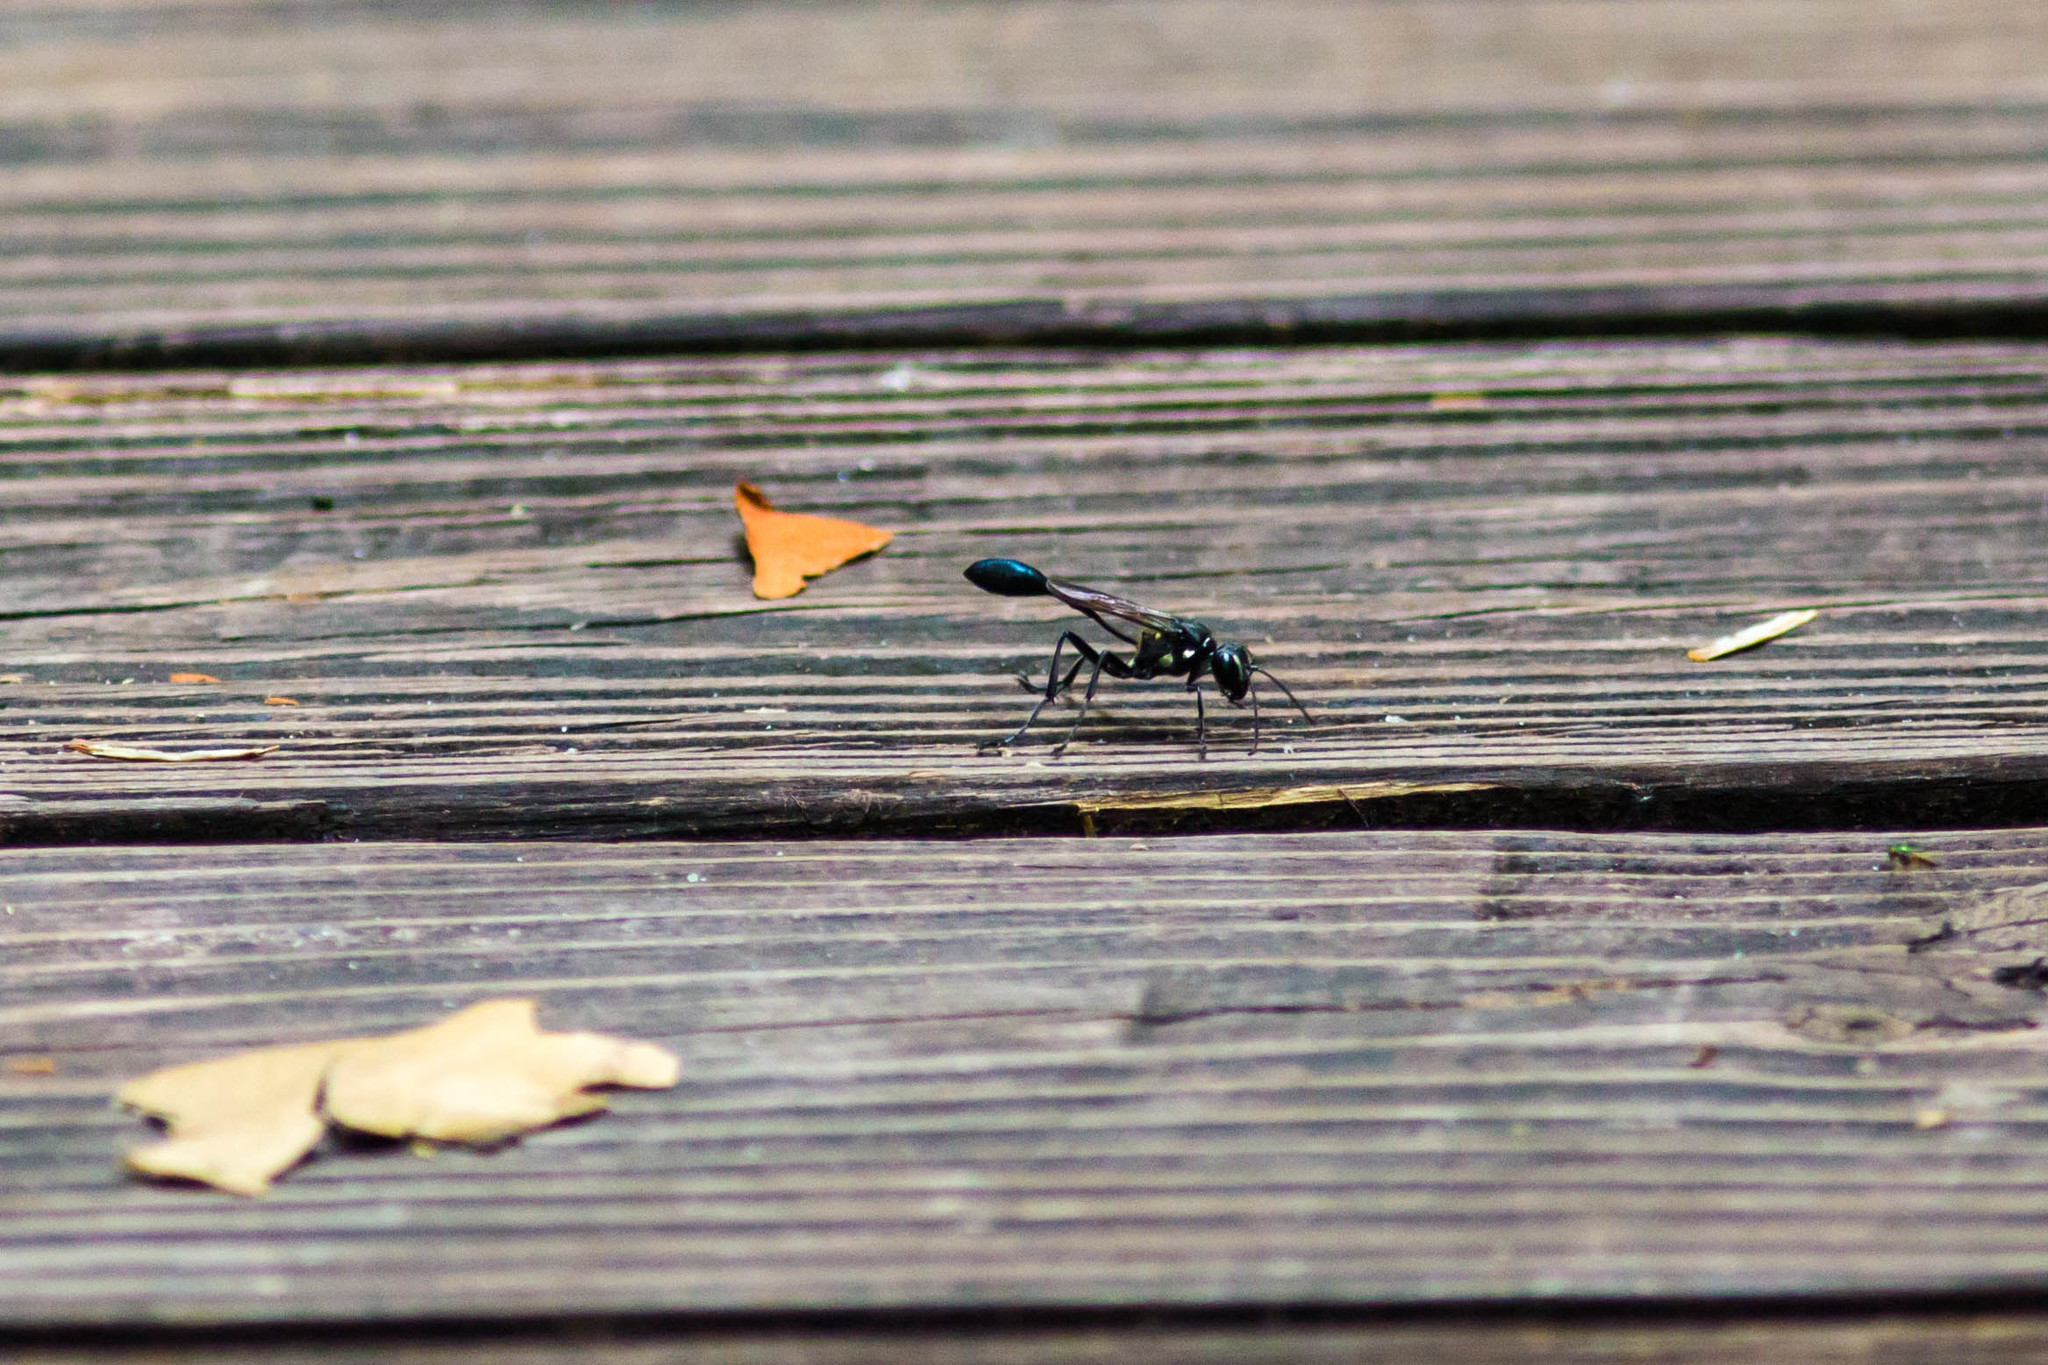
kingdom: Animalia
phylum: Arthropoda
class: Insecta
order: Hymenoptera
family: Sphecidae
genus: Eremnophila
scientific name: Eremnophila aureonotata
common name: Gold-marked thread-waisted wasp
